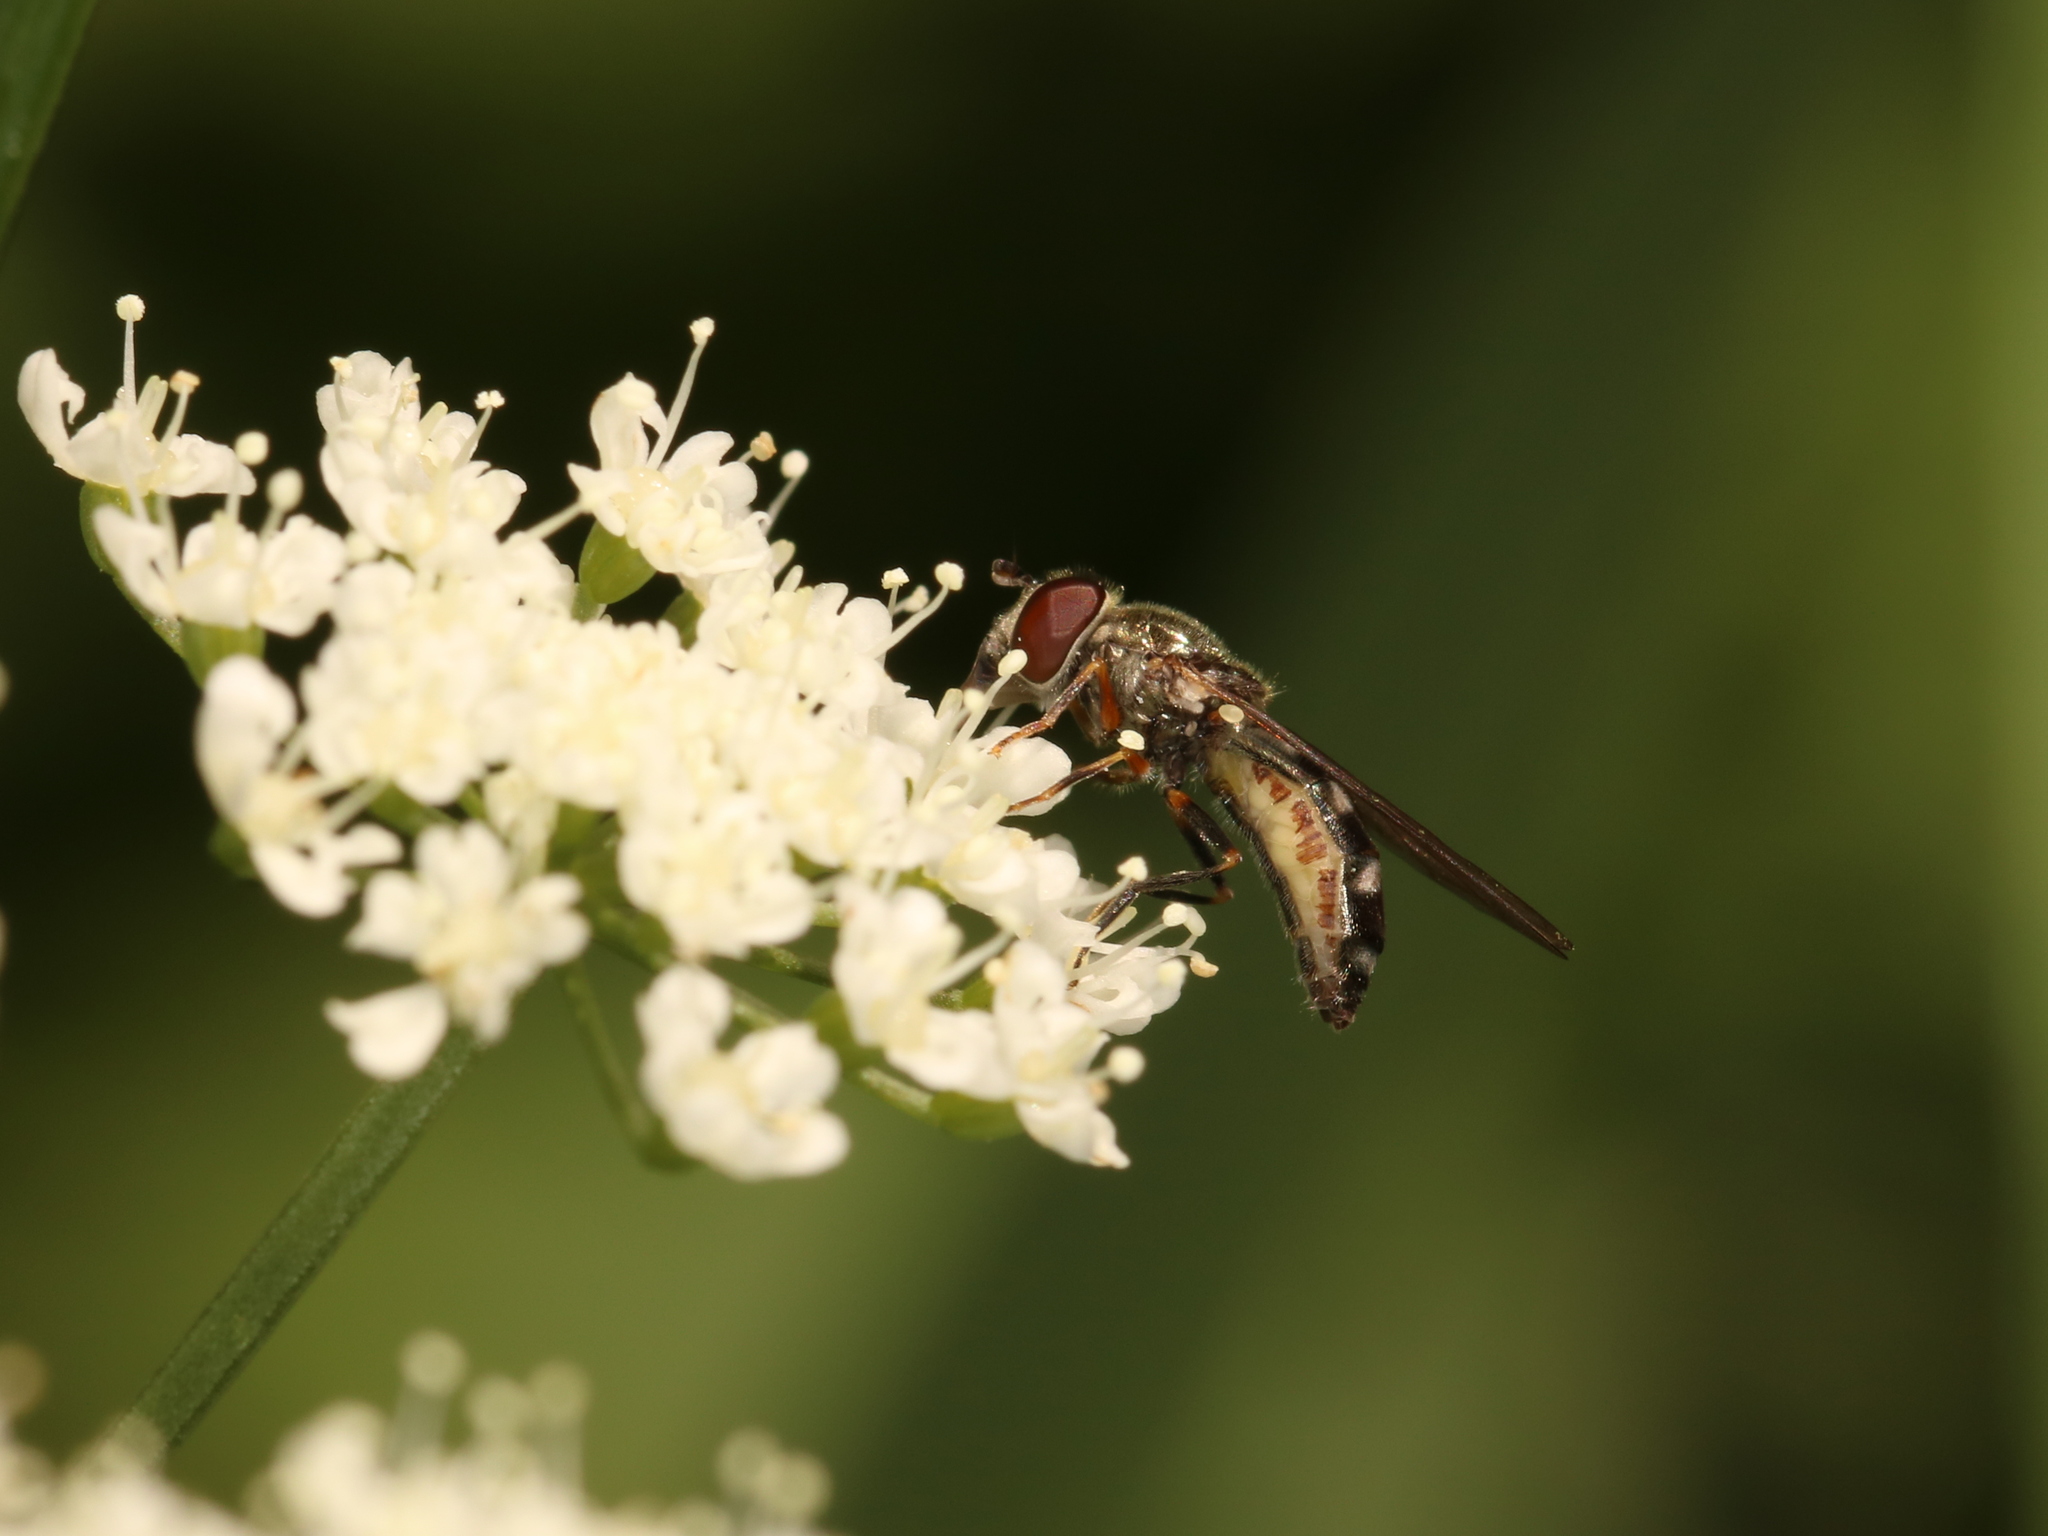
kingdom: Animalia
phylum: Arthropoda
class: Insecta
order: Diptera
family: Syrphidae
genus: Platycheirus
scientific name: Platycheirus albimanus
